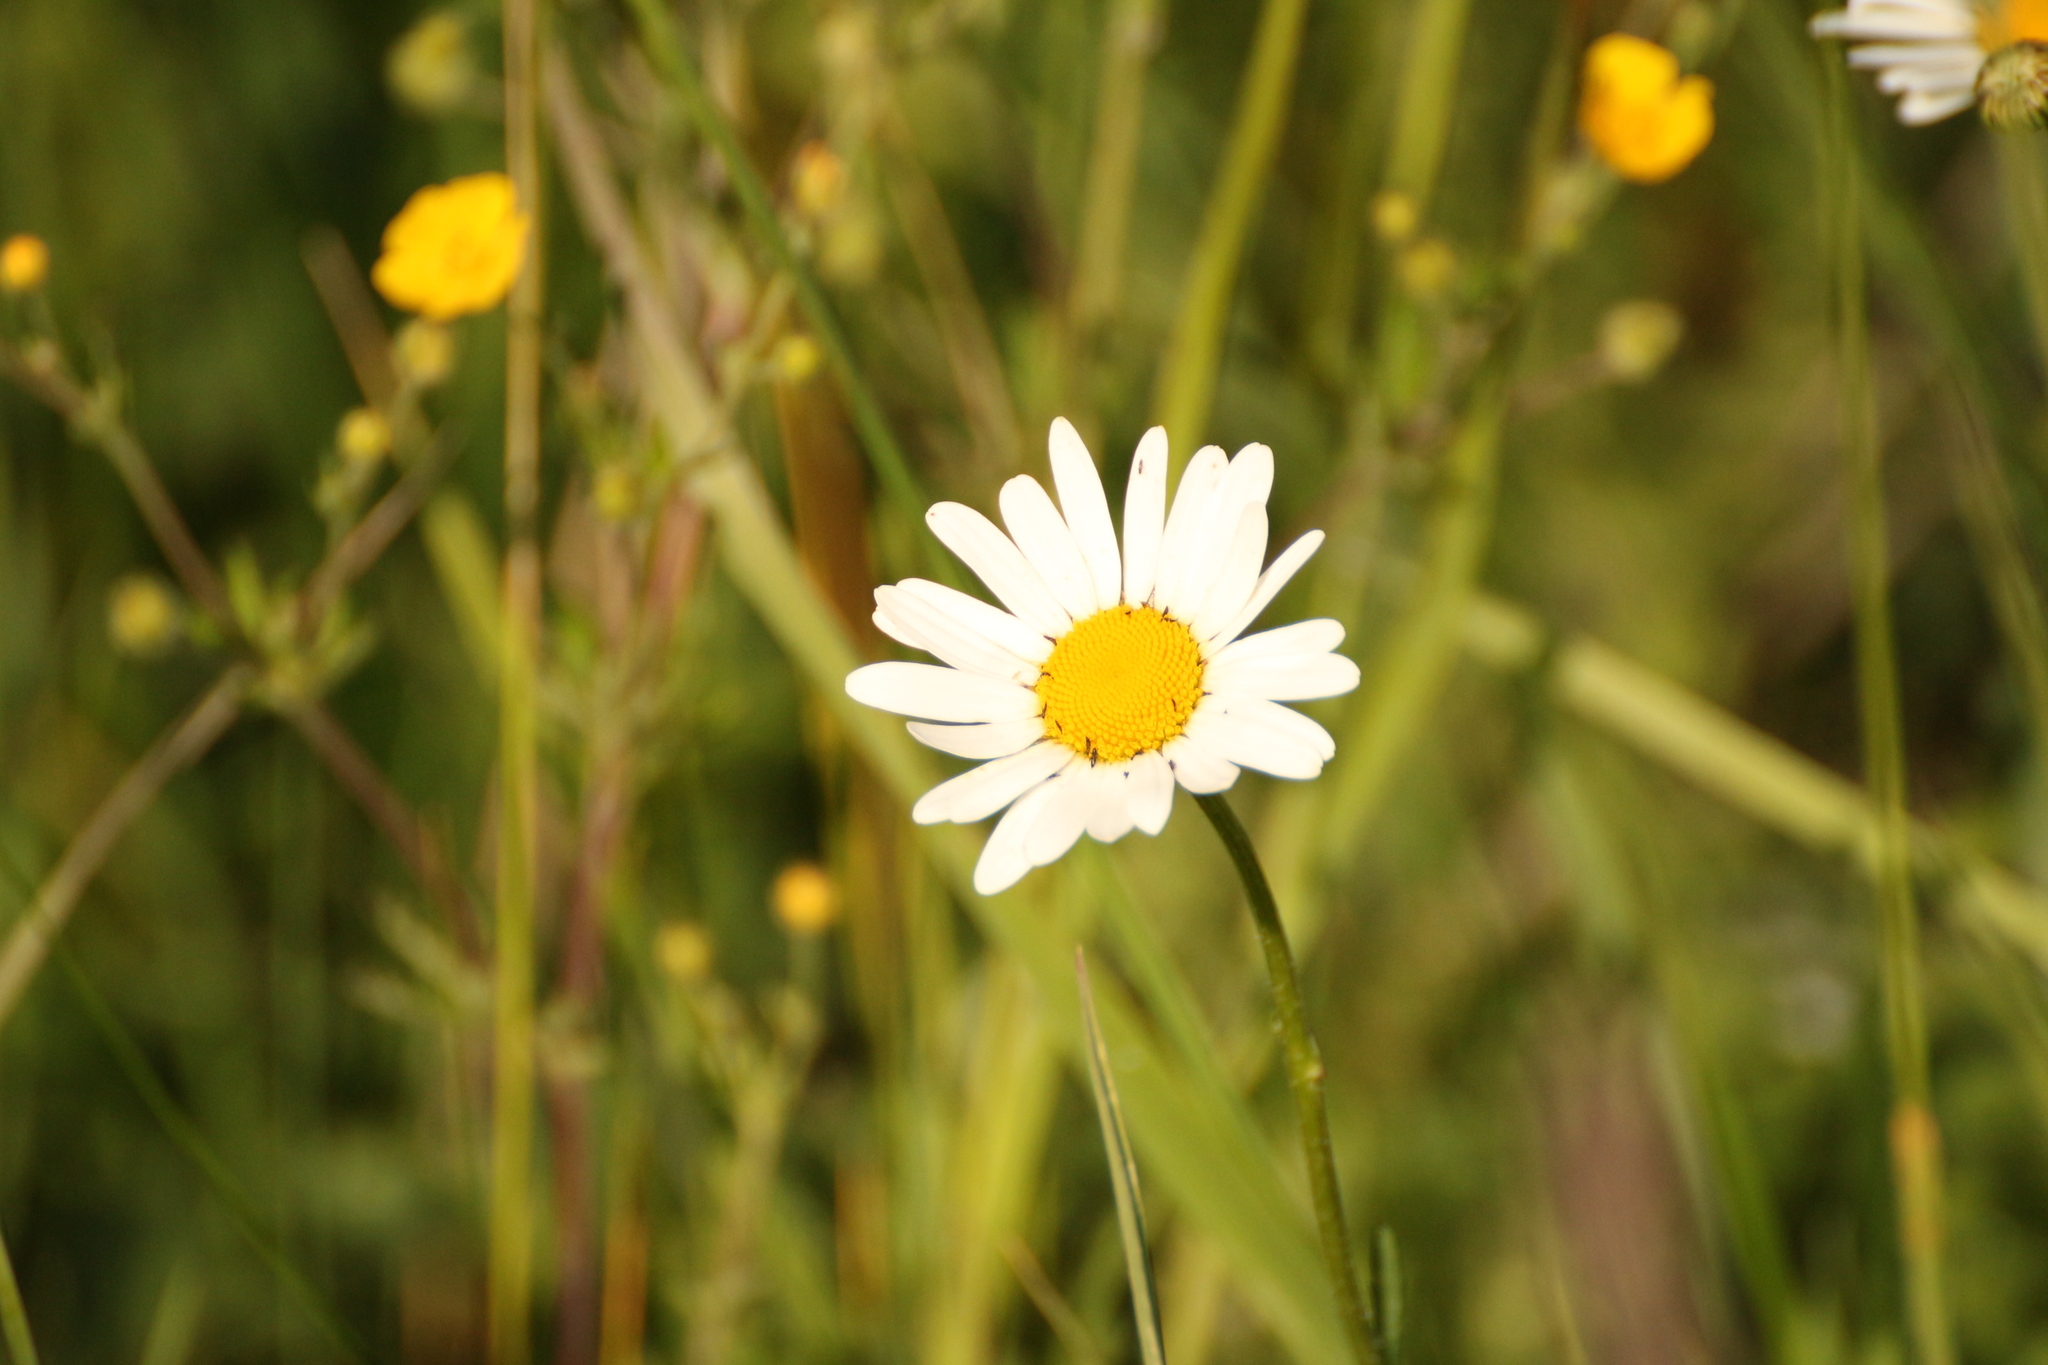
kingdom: Plantae
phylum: Tracheophyta
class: Magnoliopsida
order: Asterales
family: Asteraceae
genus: Leucanthemum
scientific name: Leucanthemum vulgare
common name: Oxeye daisy
